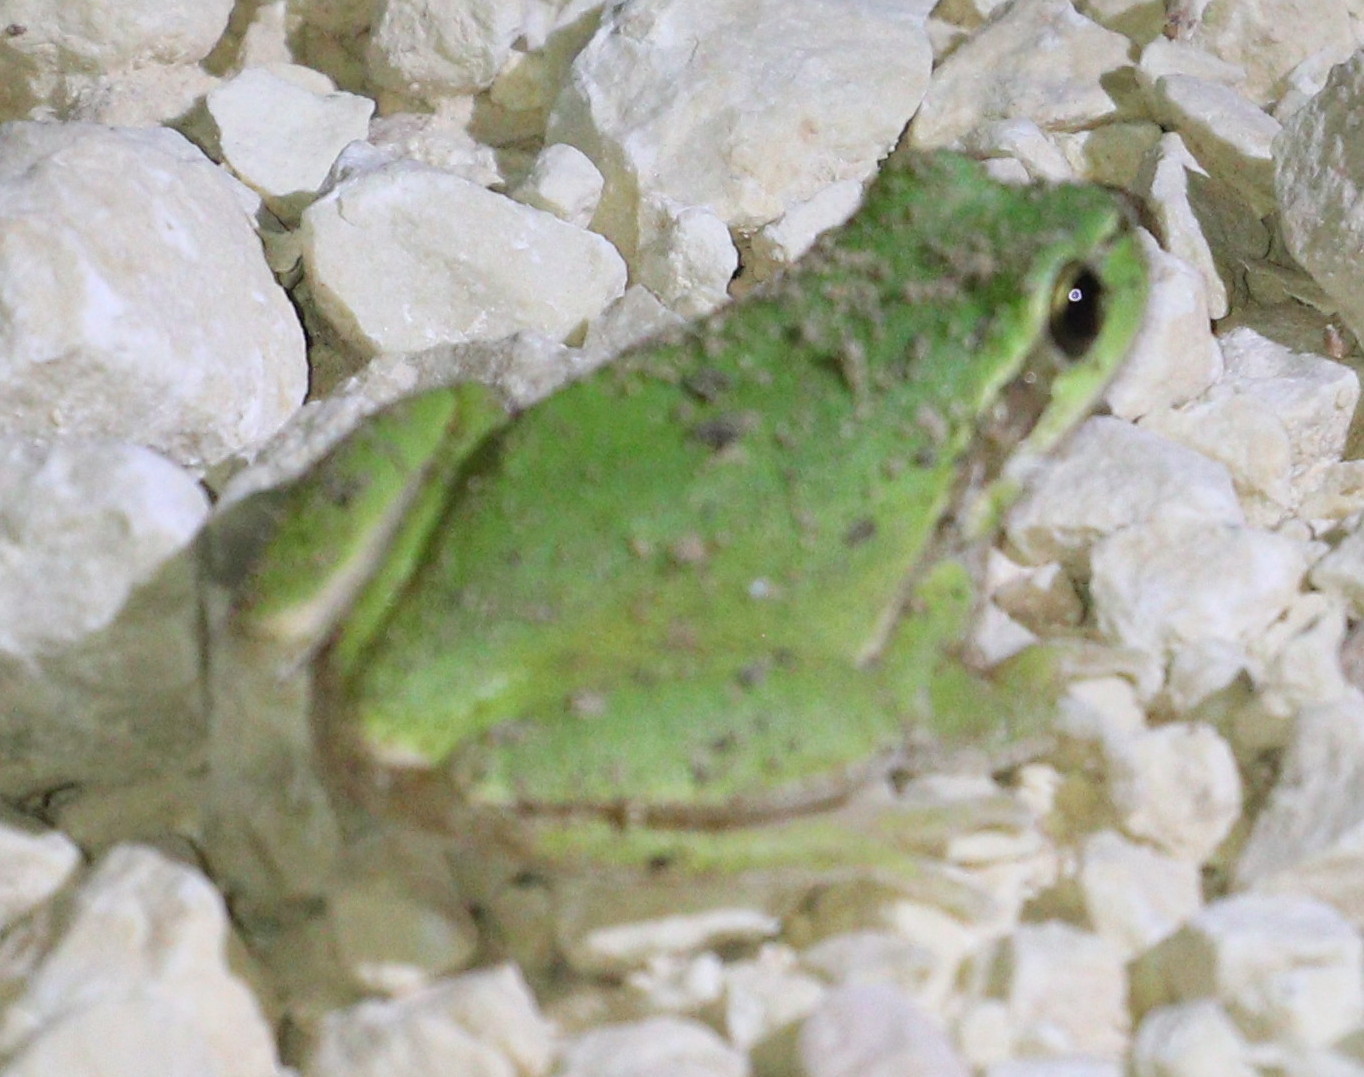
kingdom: Animalia
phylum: Chordata
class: Amphibia
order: Anura
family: Hylidae
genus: Hyla
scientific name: Hyla savignyi
